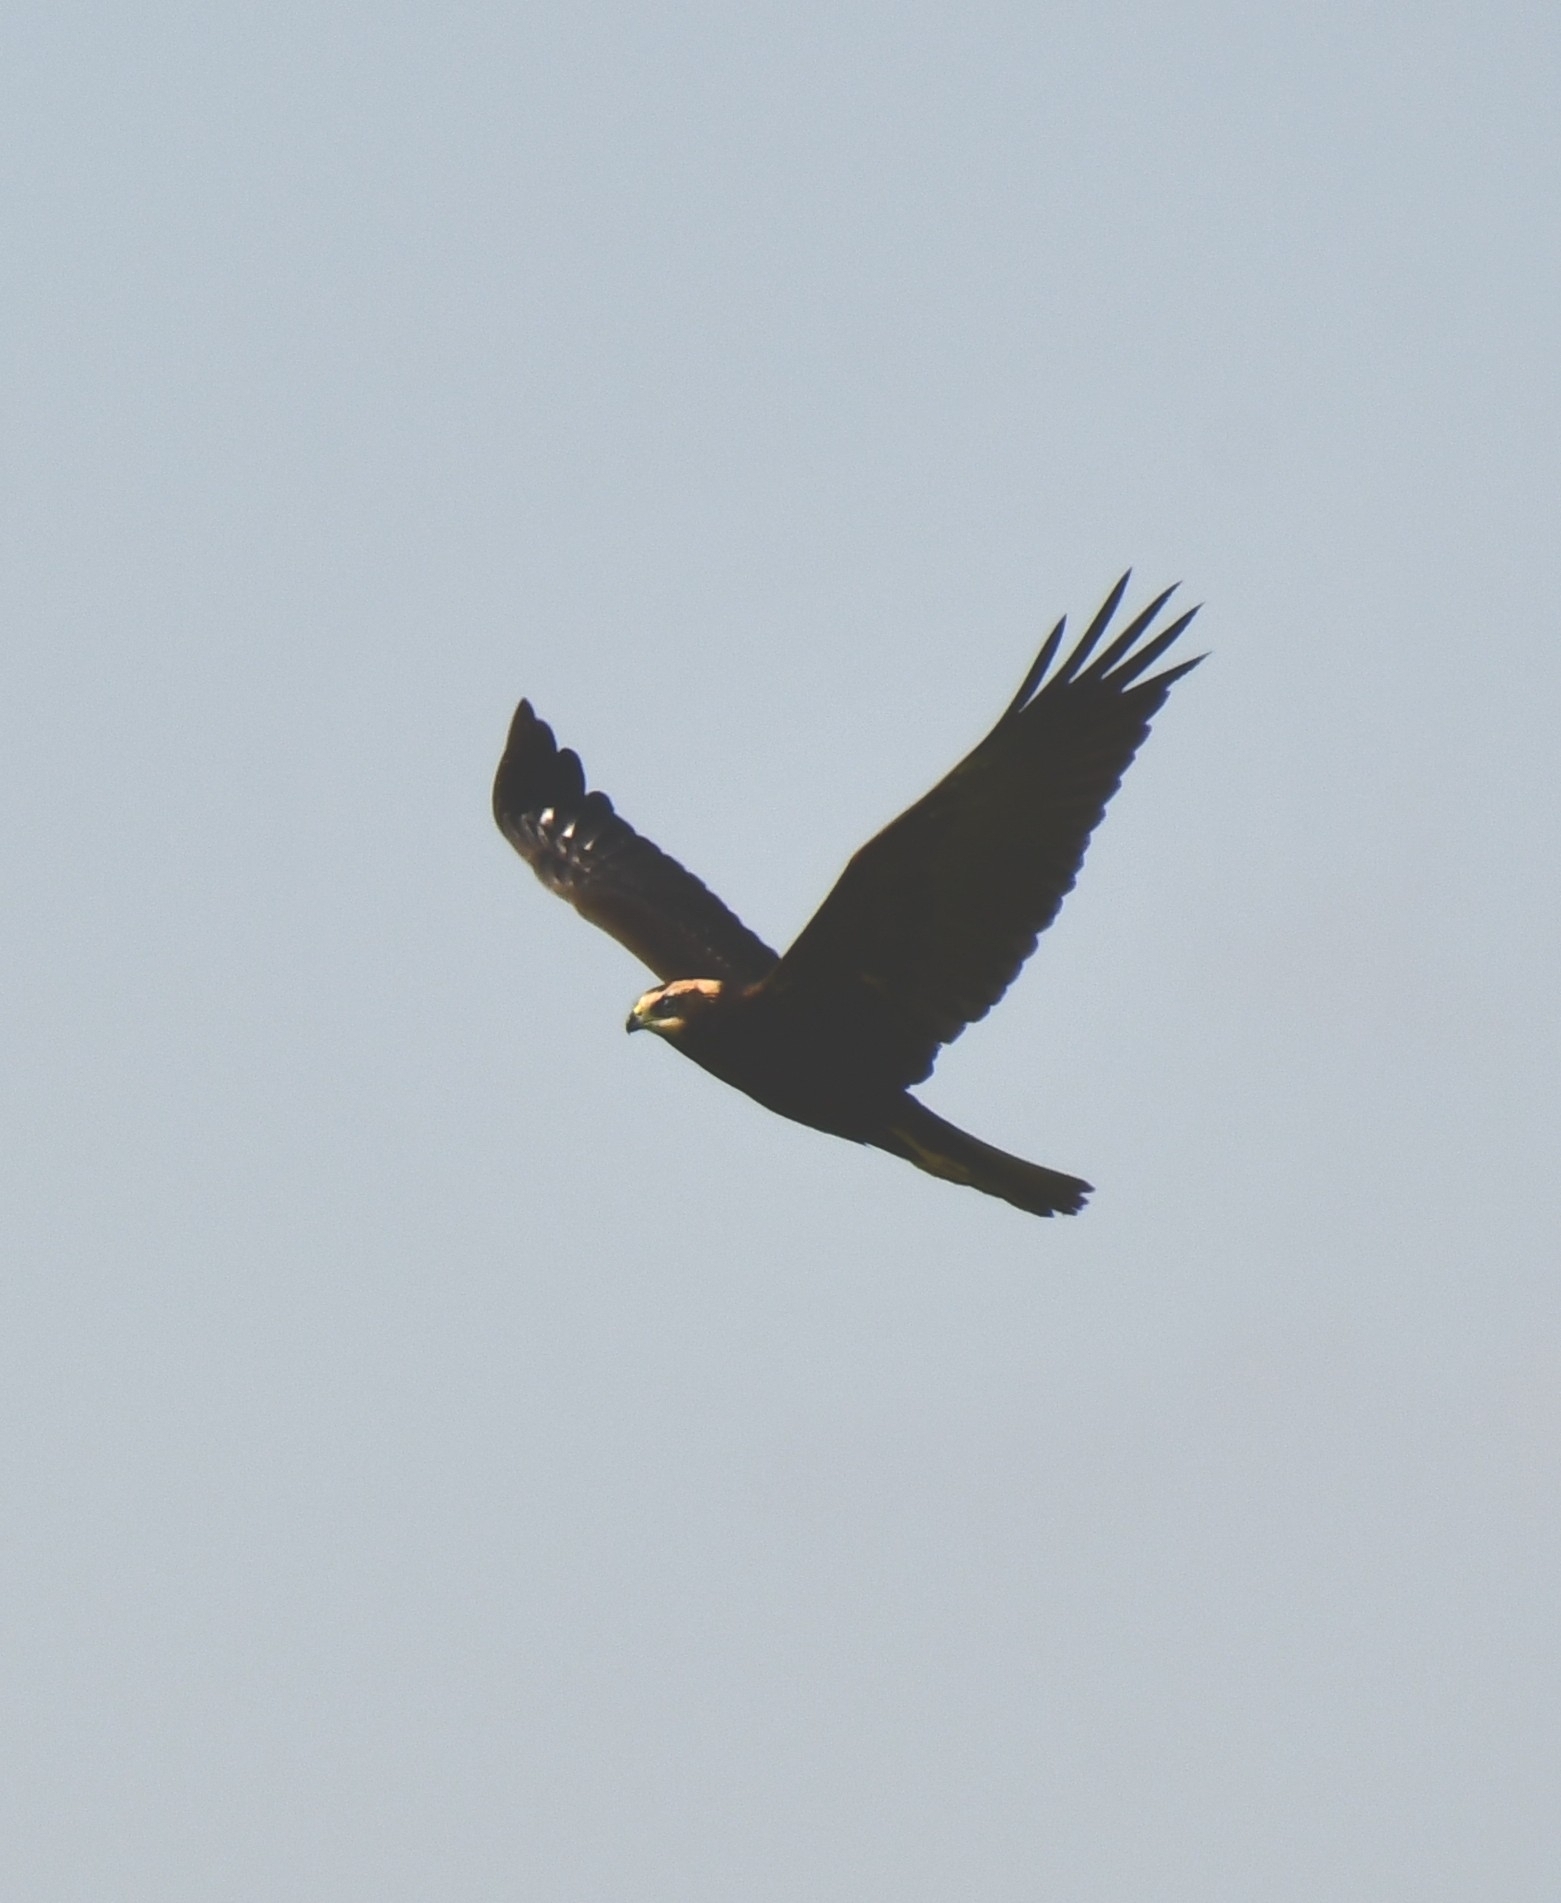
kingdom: Animalia
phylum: Chordata
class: Aves
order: Accipitriformes
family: Accipitridae
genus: Circus
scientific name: Circus aeruginosus
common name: Western marsh harrier
